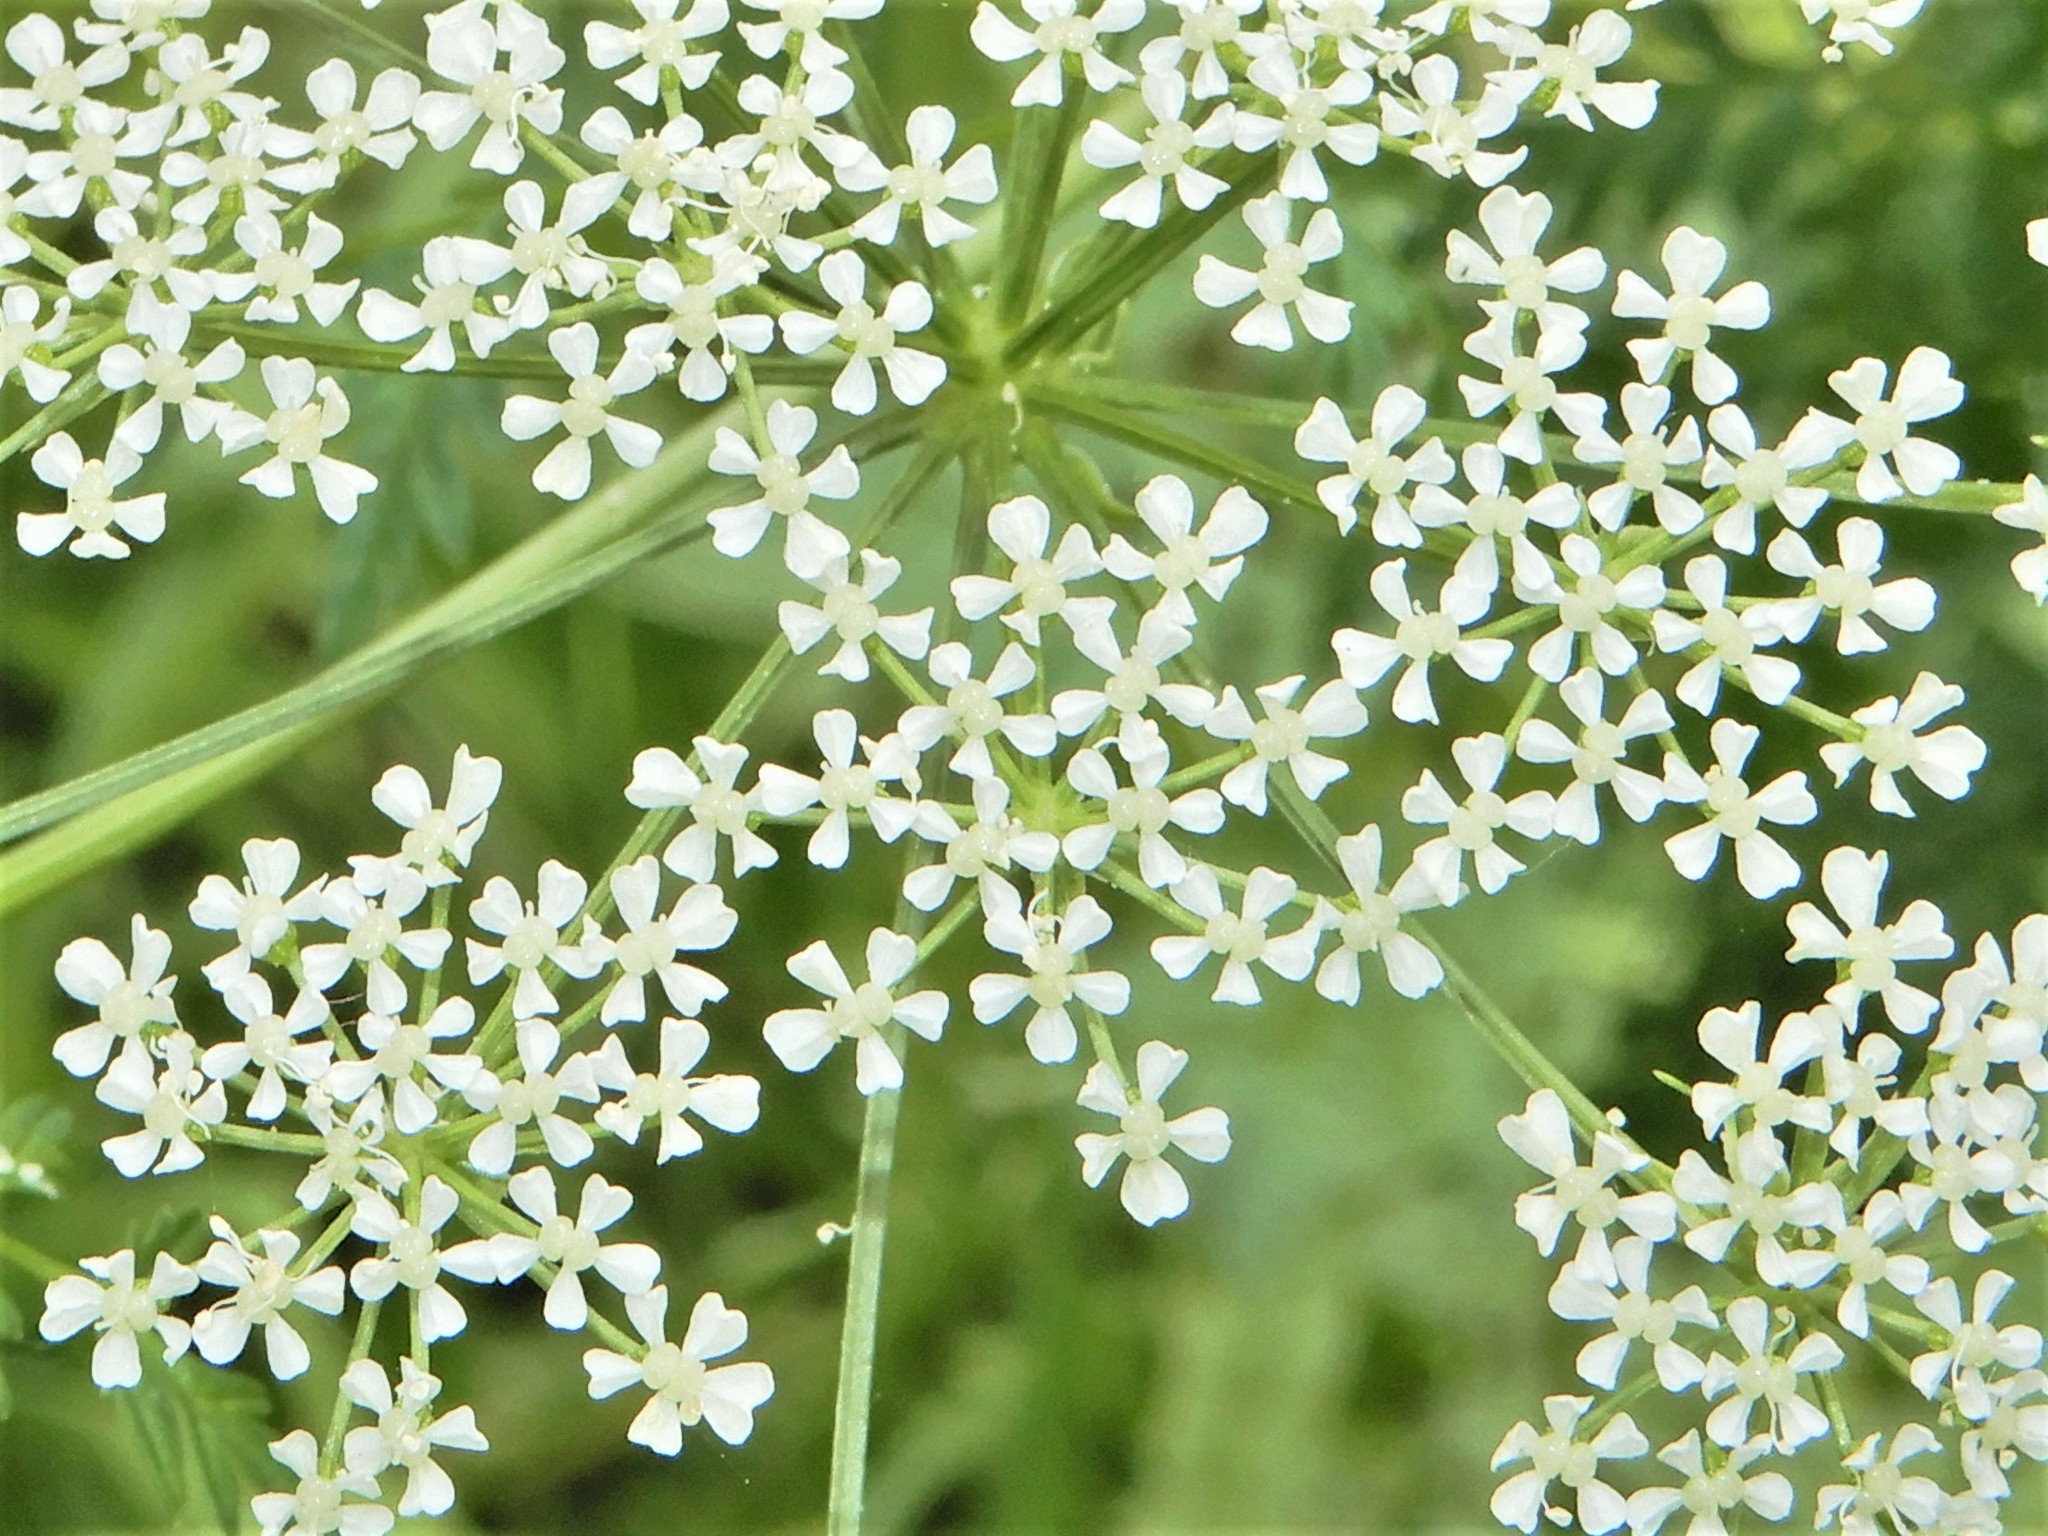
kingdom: Plantae
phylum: Tracheophyta
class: Magnoliopsida
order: Apiales
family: Apiaceae
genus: Conium
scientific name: Conium maculatum
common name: Hemlock
